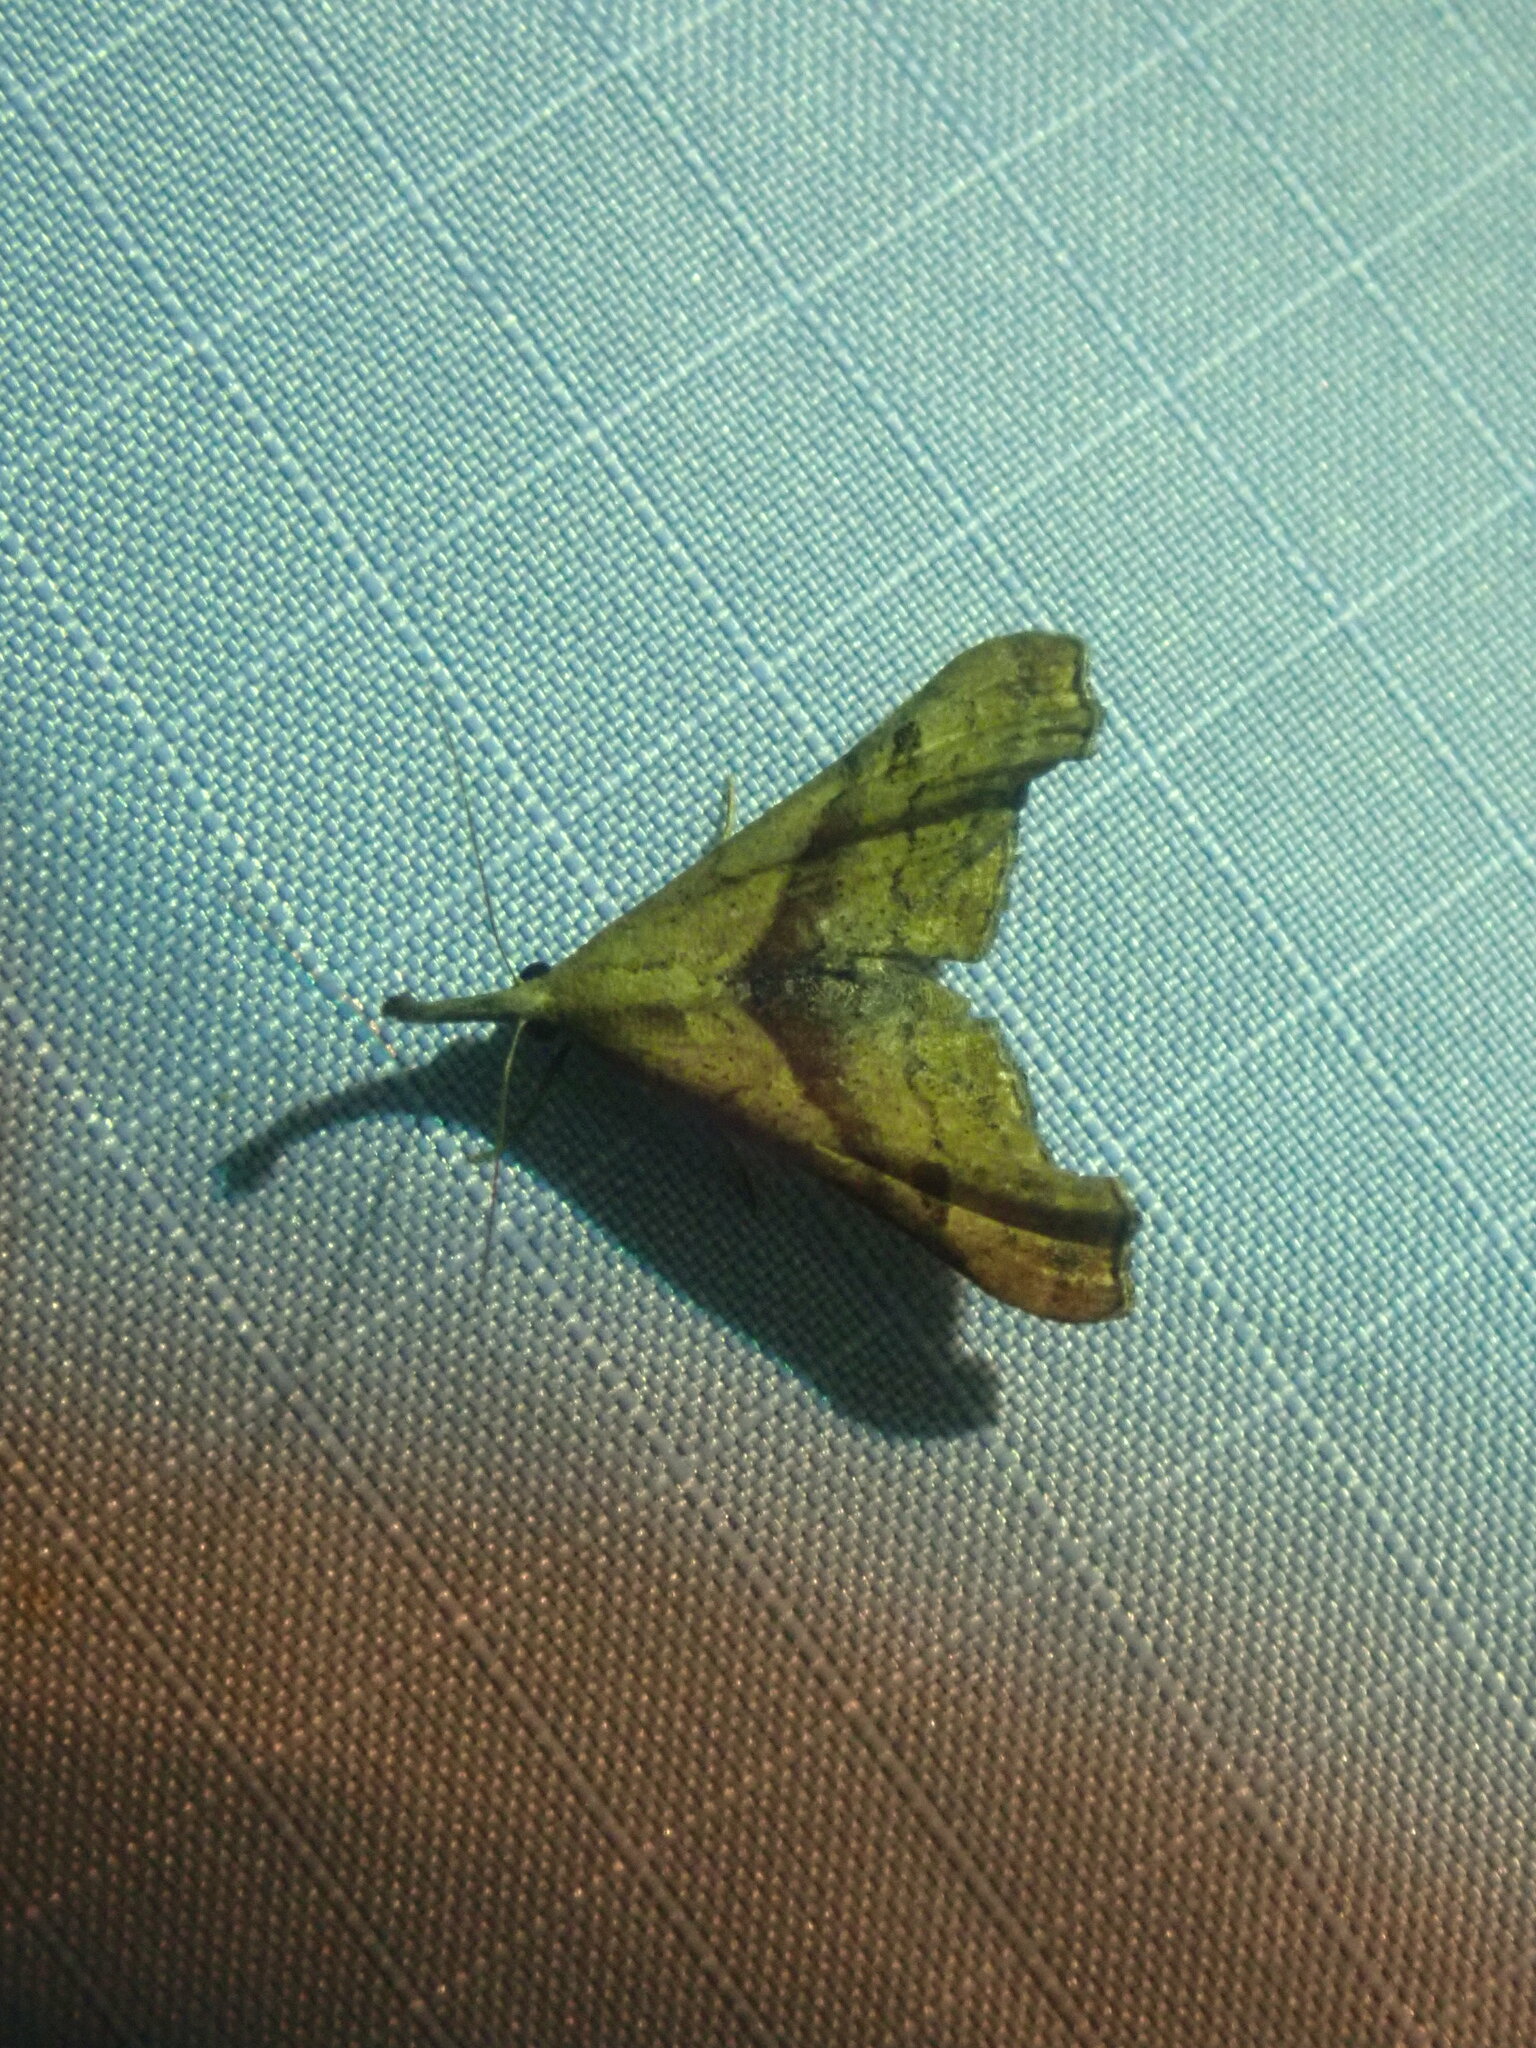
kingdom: Animalia
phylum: Arthropoda
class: Insecta
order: Lepidoptera
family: Erebidae
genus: Palthis
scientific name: Palthis angulalis
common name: Dark-spotted palthis moth
